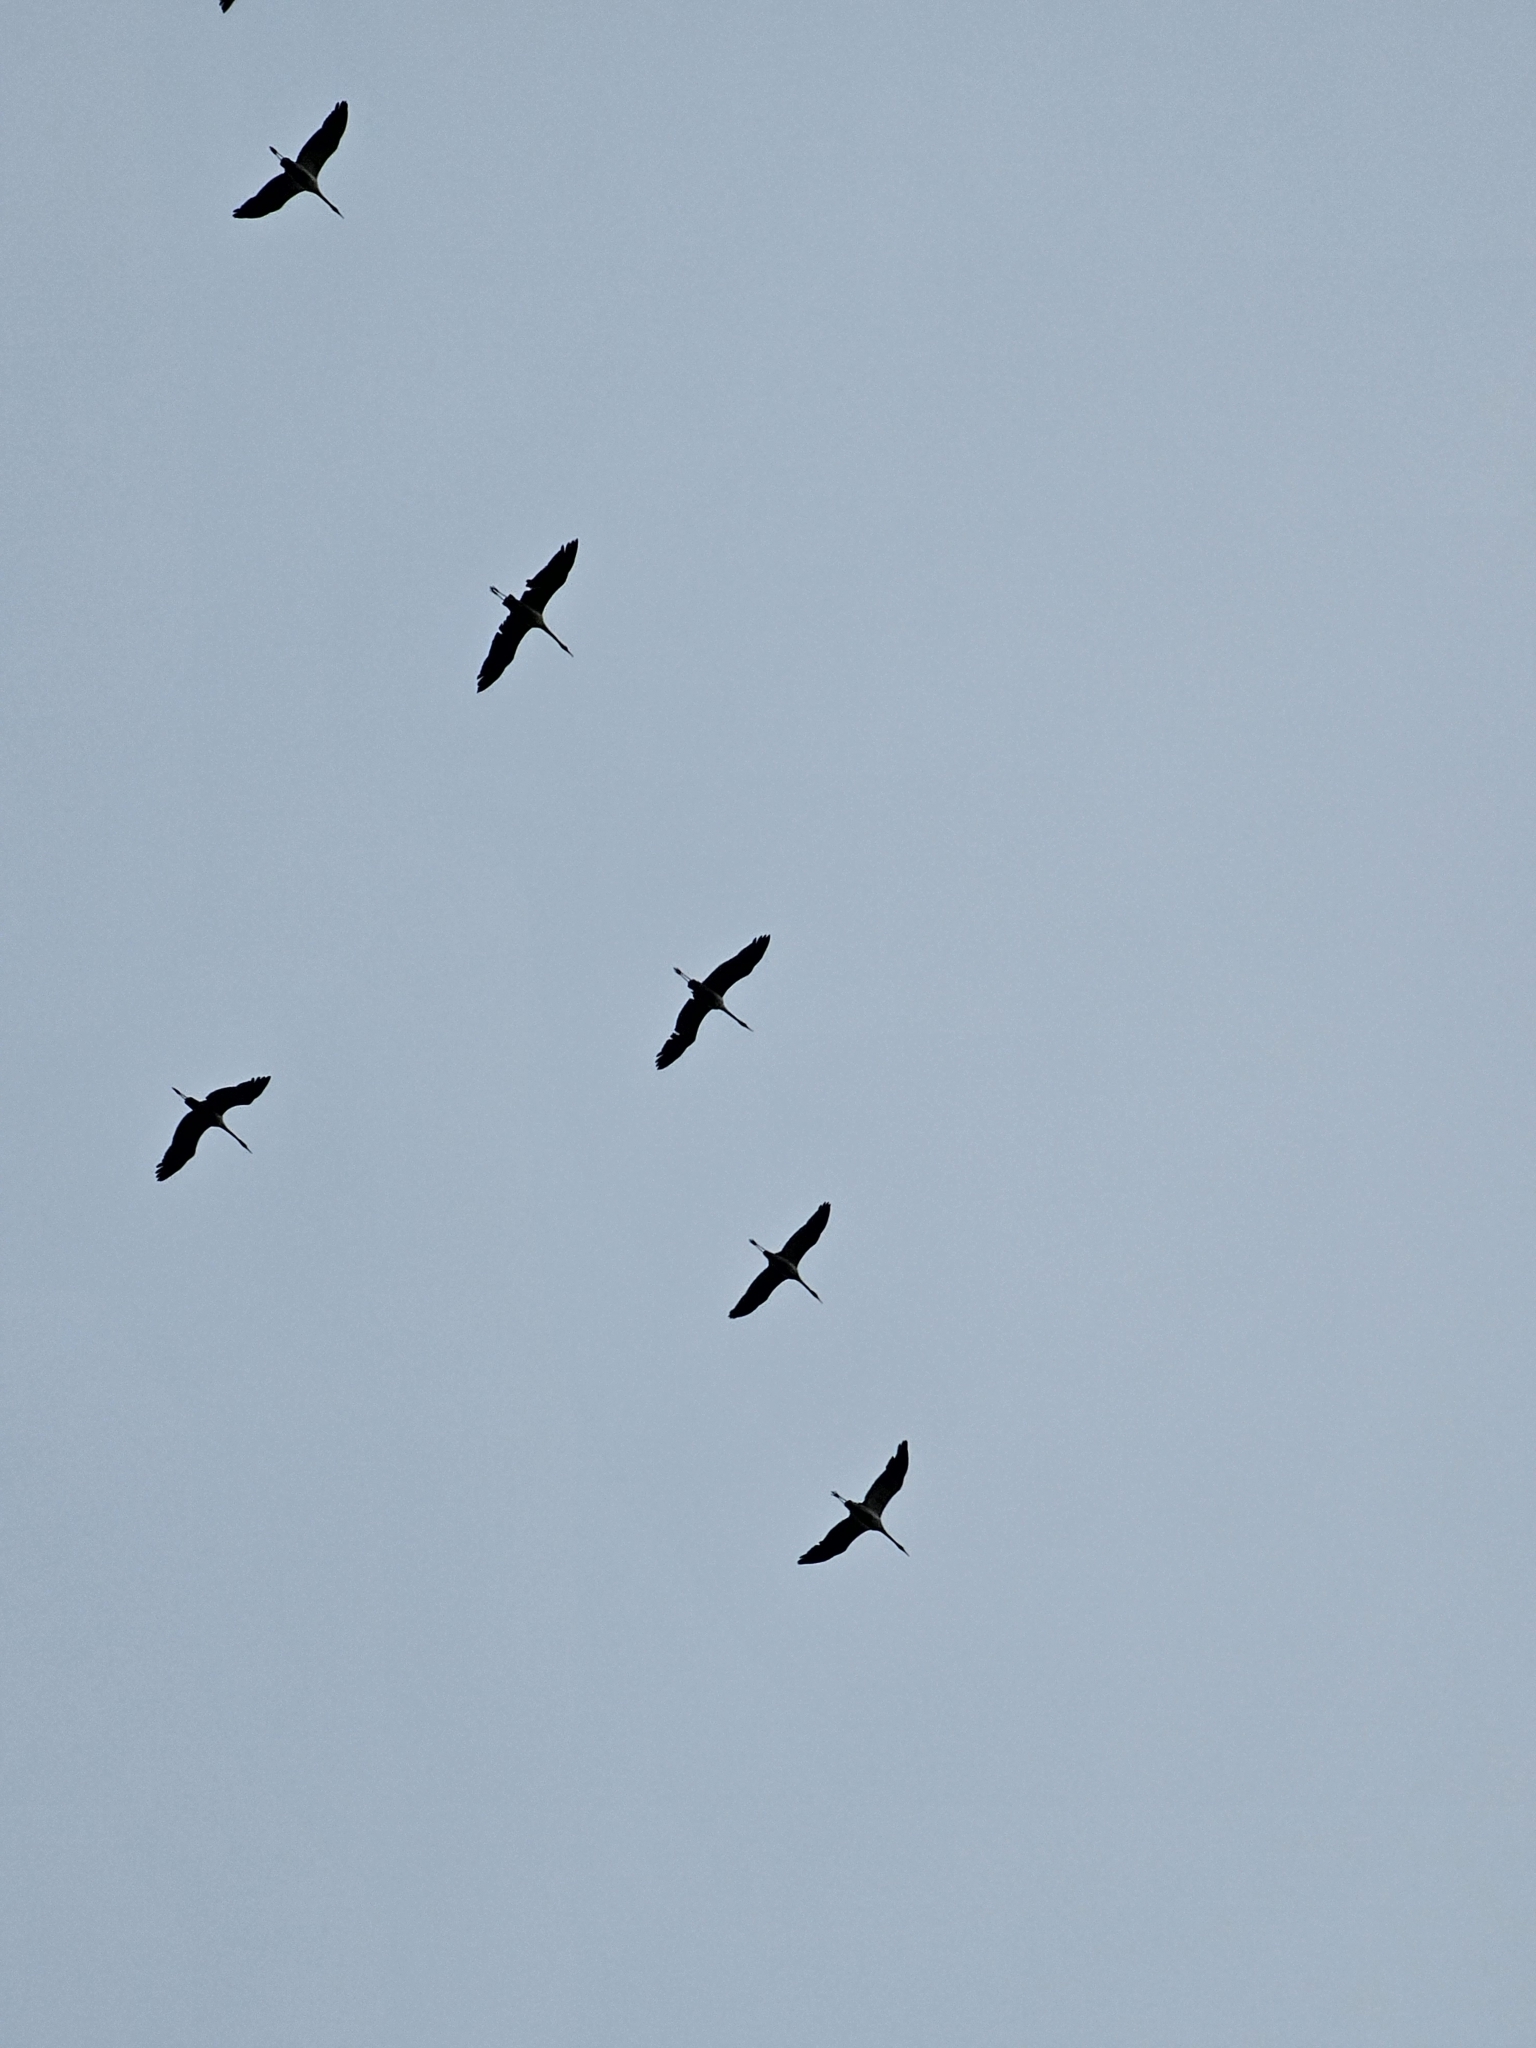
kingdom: Animalia
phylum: Chordata
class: Aves
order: Gruiformes
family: Gruidae
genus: Grus
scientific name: Grus grus
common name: Common crane
